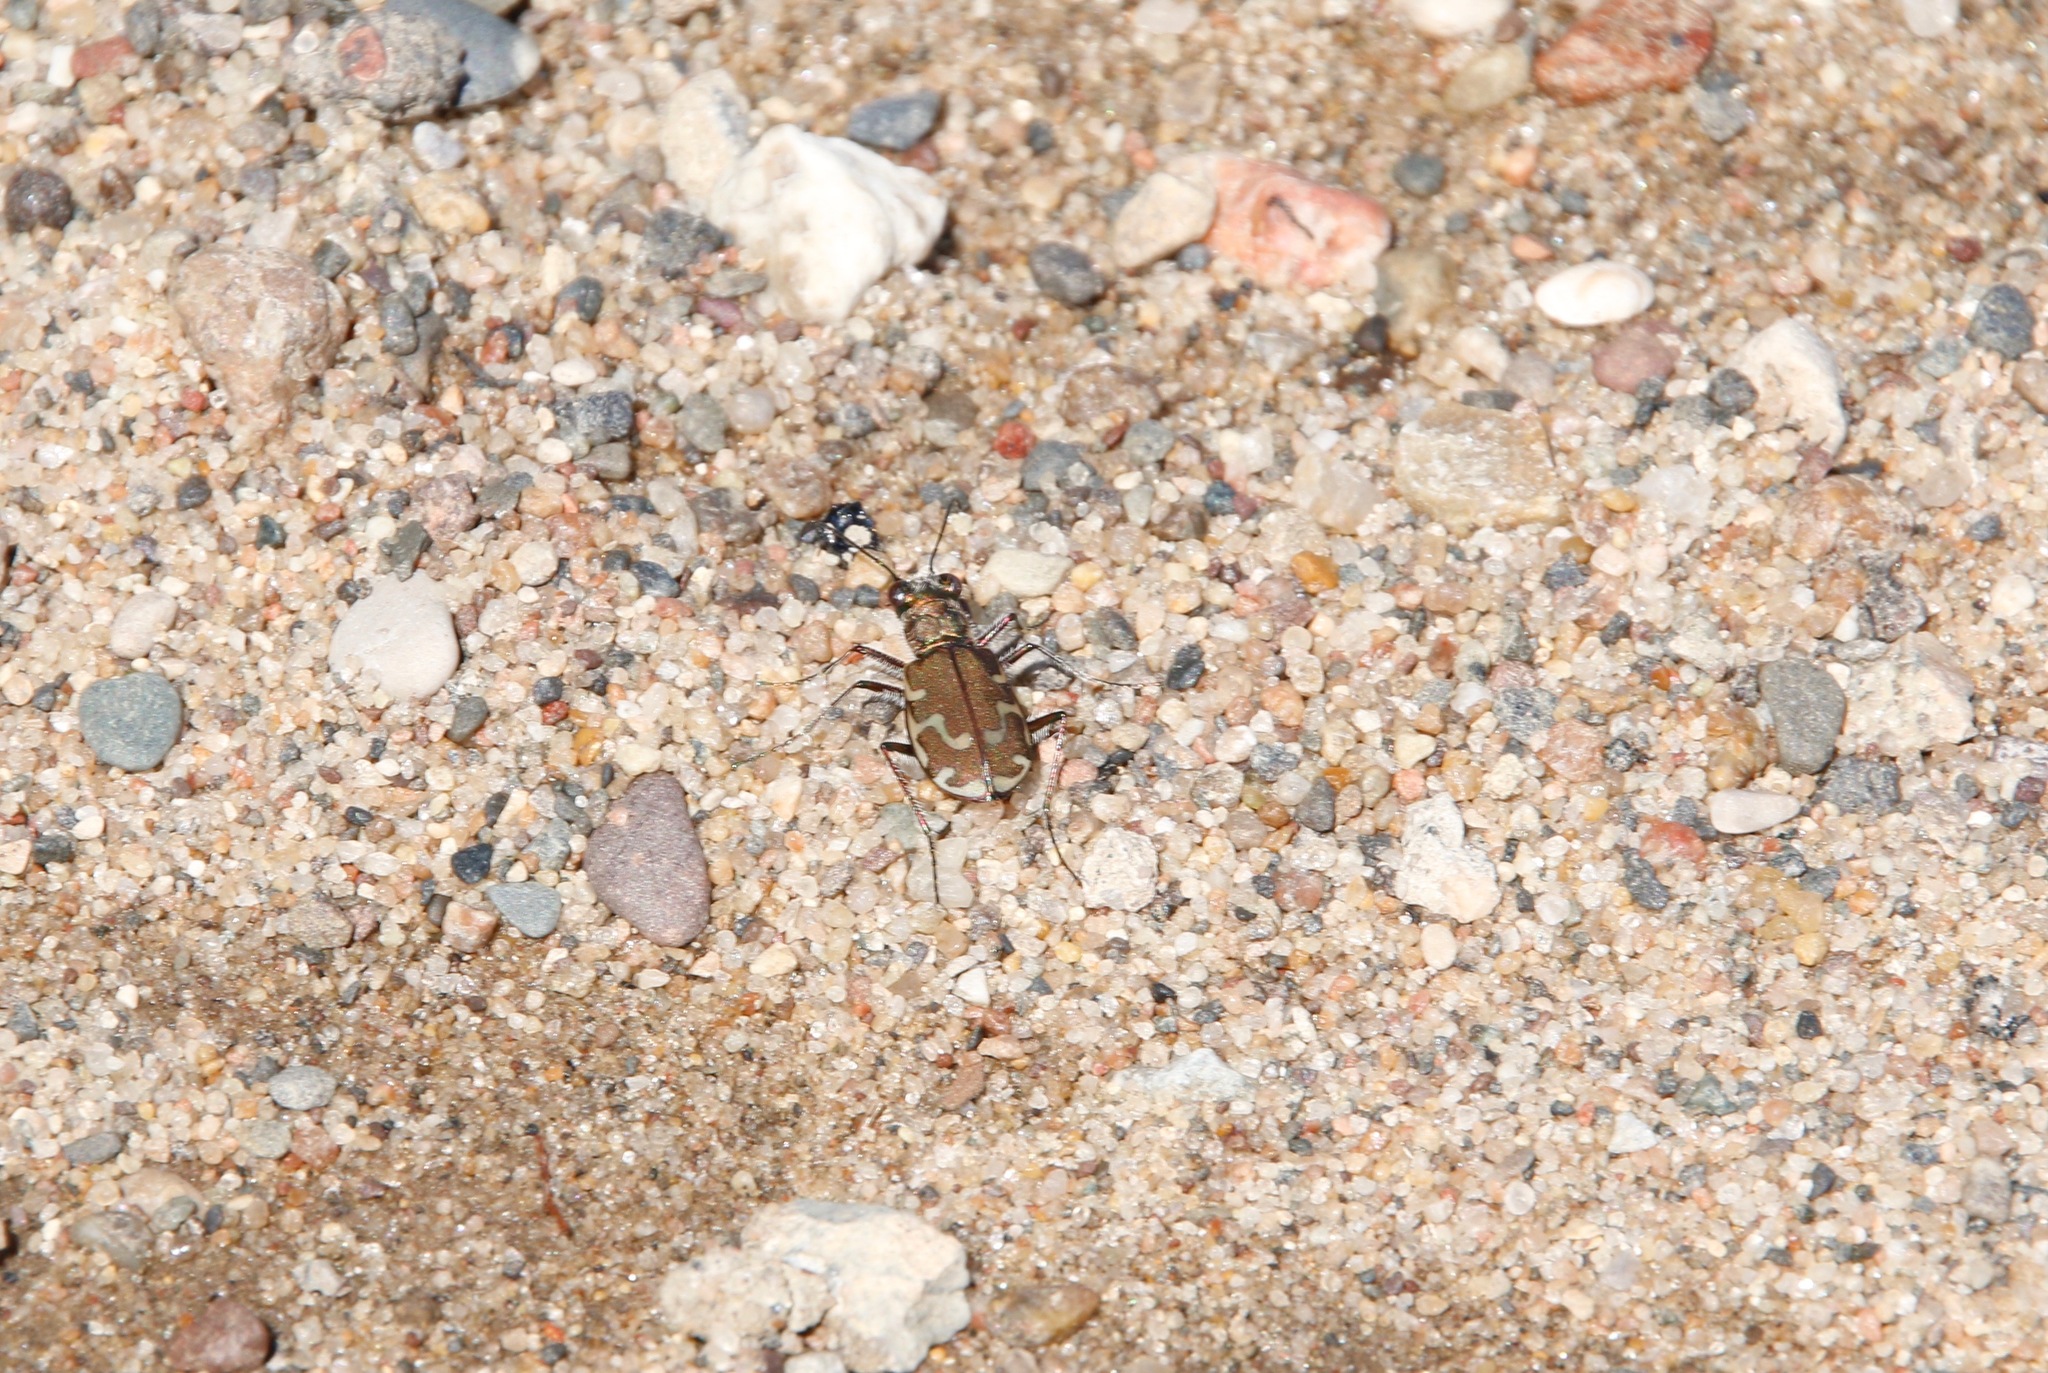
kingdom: Animalia
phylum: Arthropoda
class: Insecta
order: Coleoptera
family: Carabidae
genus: Cicindela
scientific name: Cicindela repanda
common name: Bronzed tiger beetle
